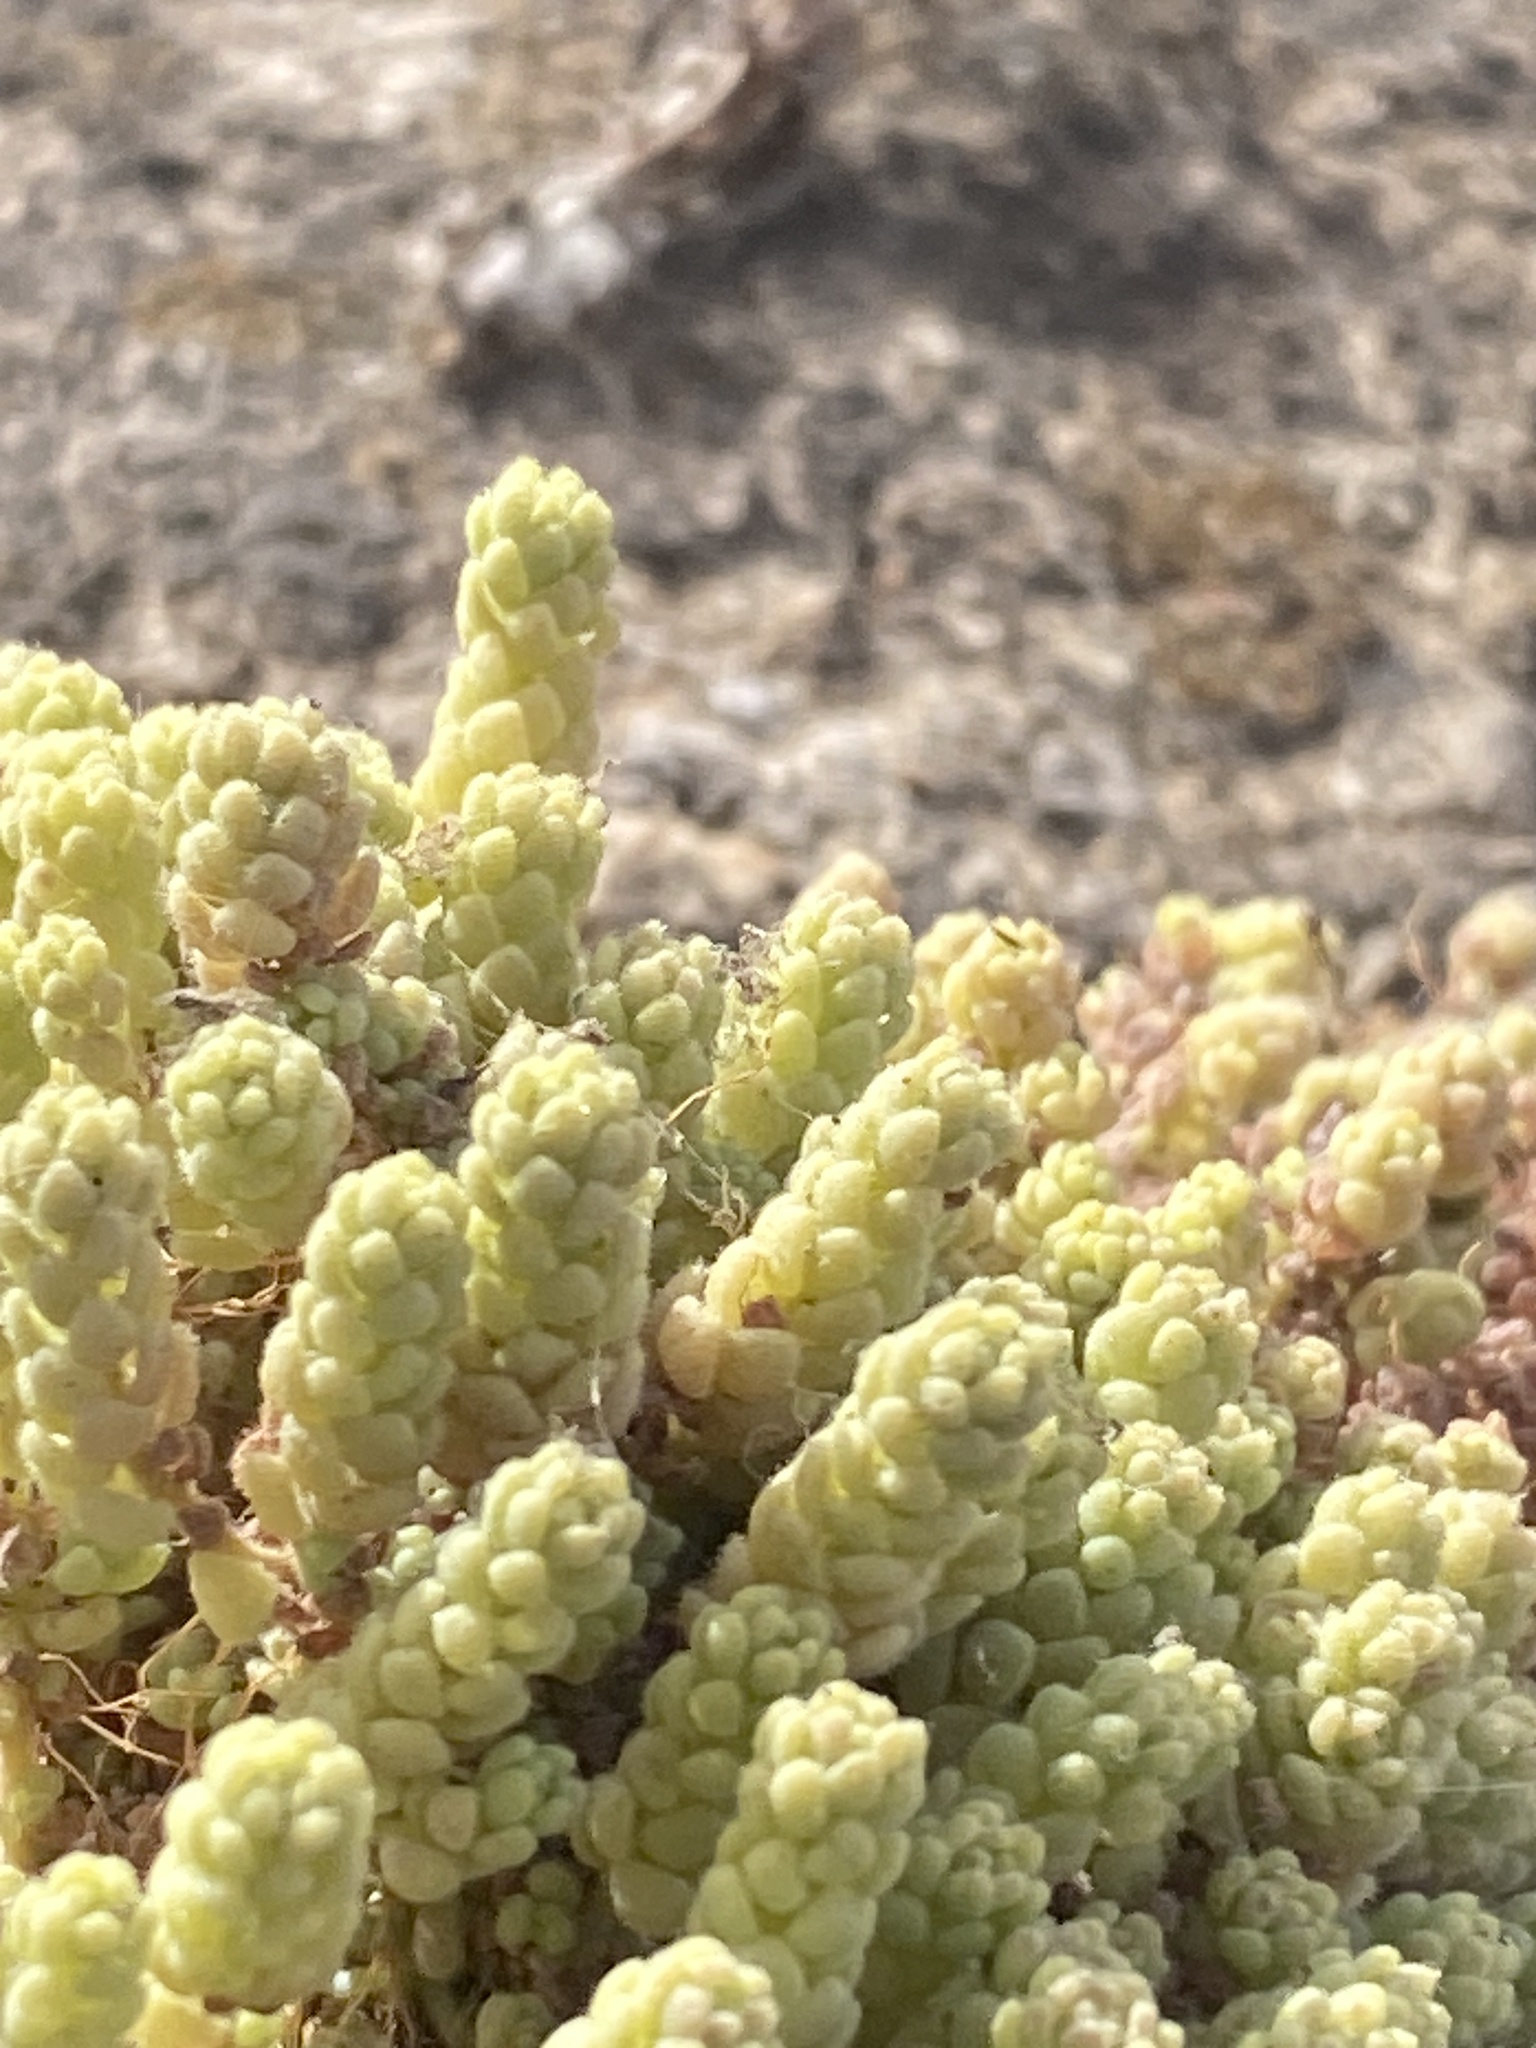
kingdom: Plantae
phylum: Tracheophyta
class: Magnoliopsida
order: Saxifragales
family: Crassulaceae
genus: Sedum
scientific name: Sedum dasyphyllum
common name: Thick-leaf stonecrop
